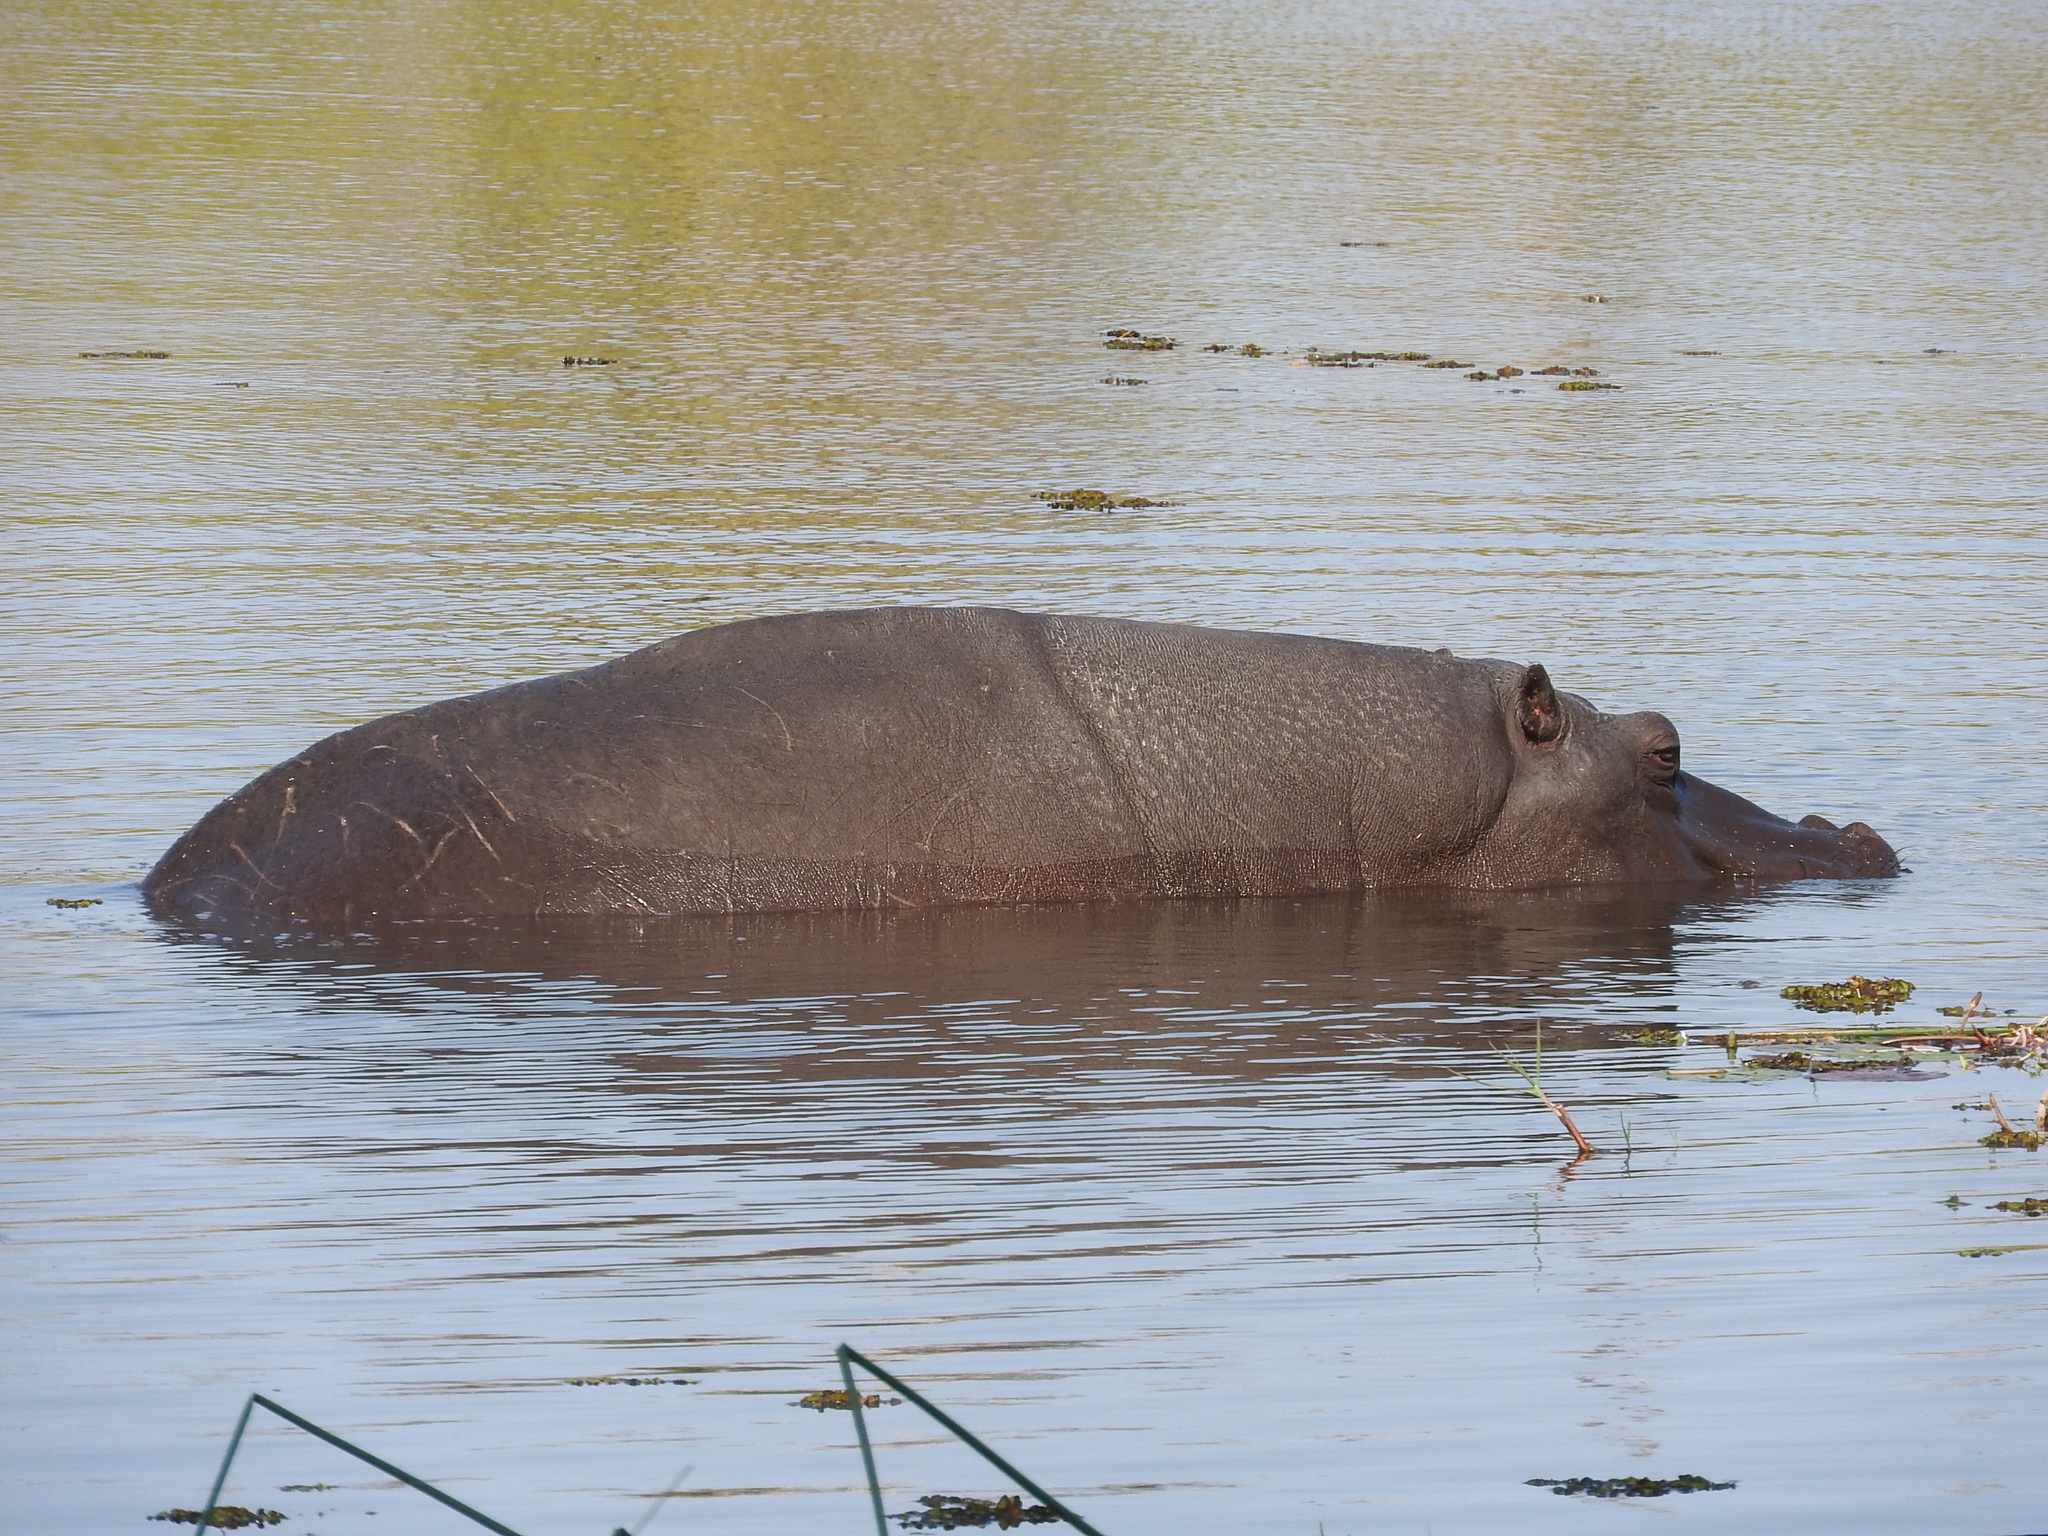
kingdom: Animalia
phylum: Chordata
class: Mammalia
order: Artiodactyla
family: Hippopotamidae
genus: Hippopotamus
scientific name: Hippopotamus amphibius
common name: Common hippopotamus
